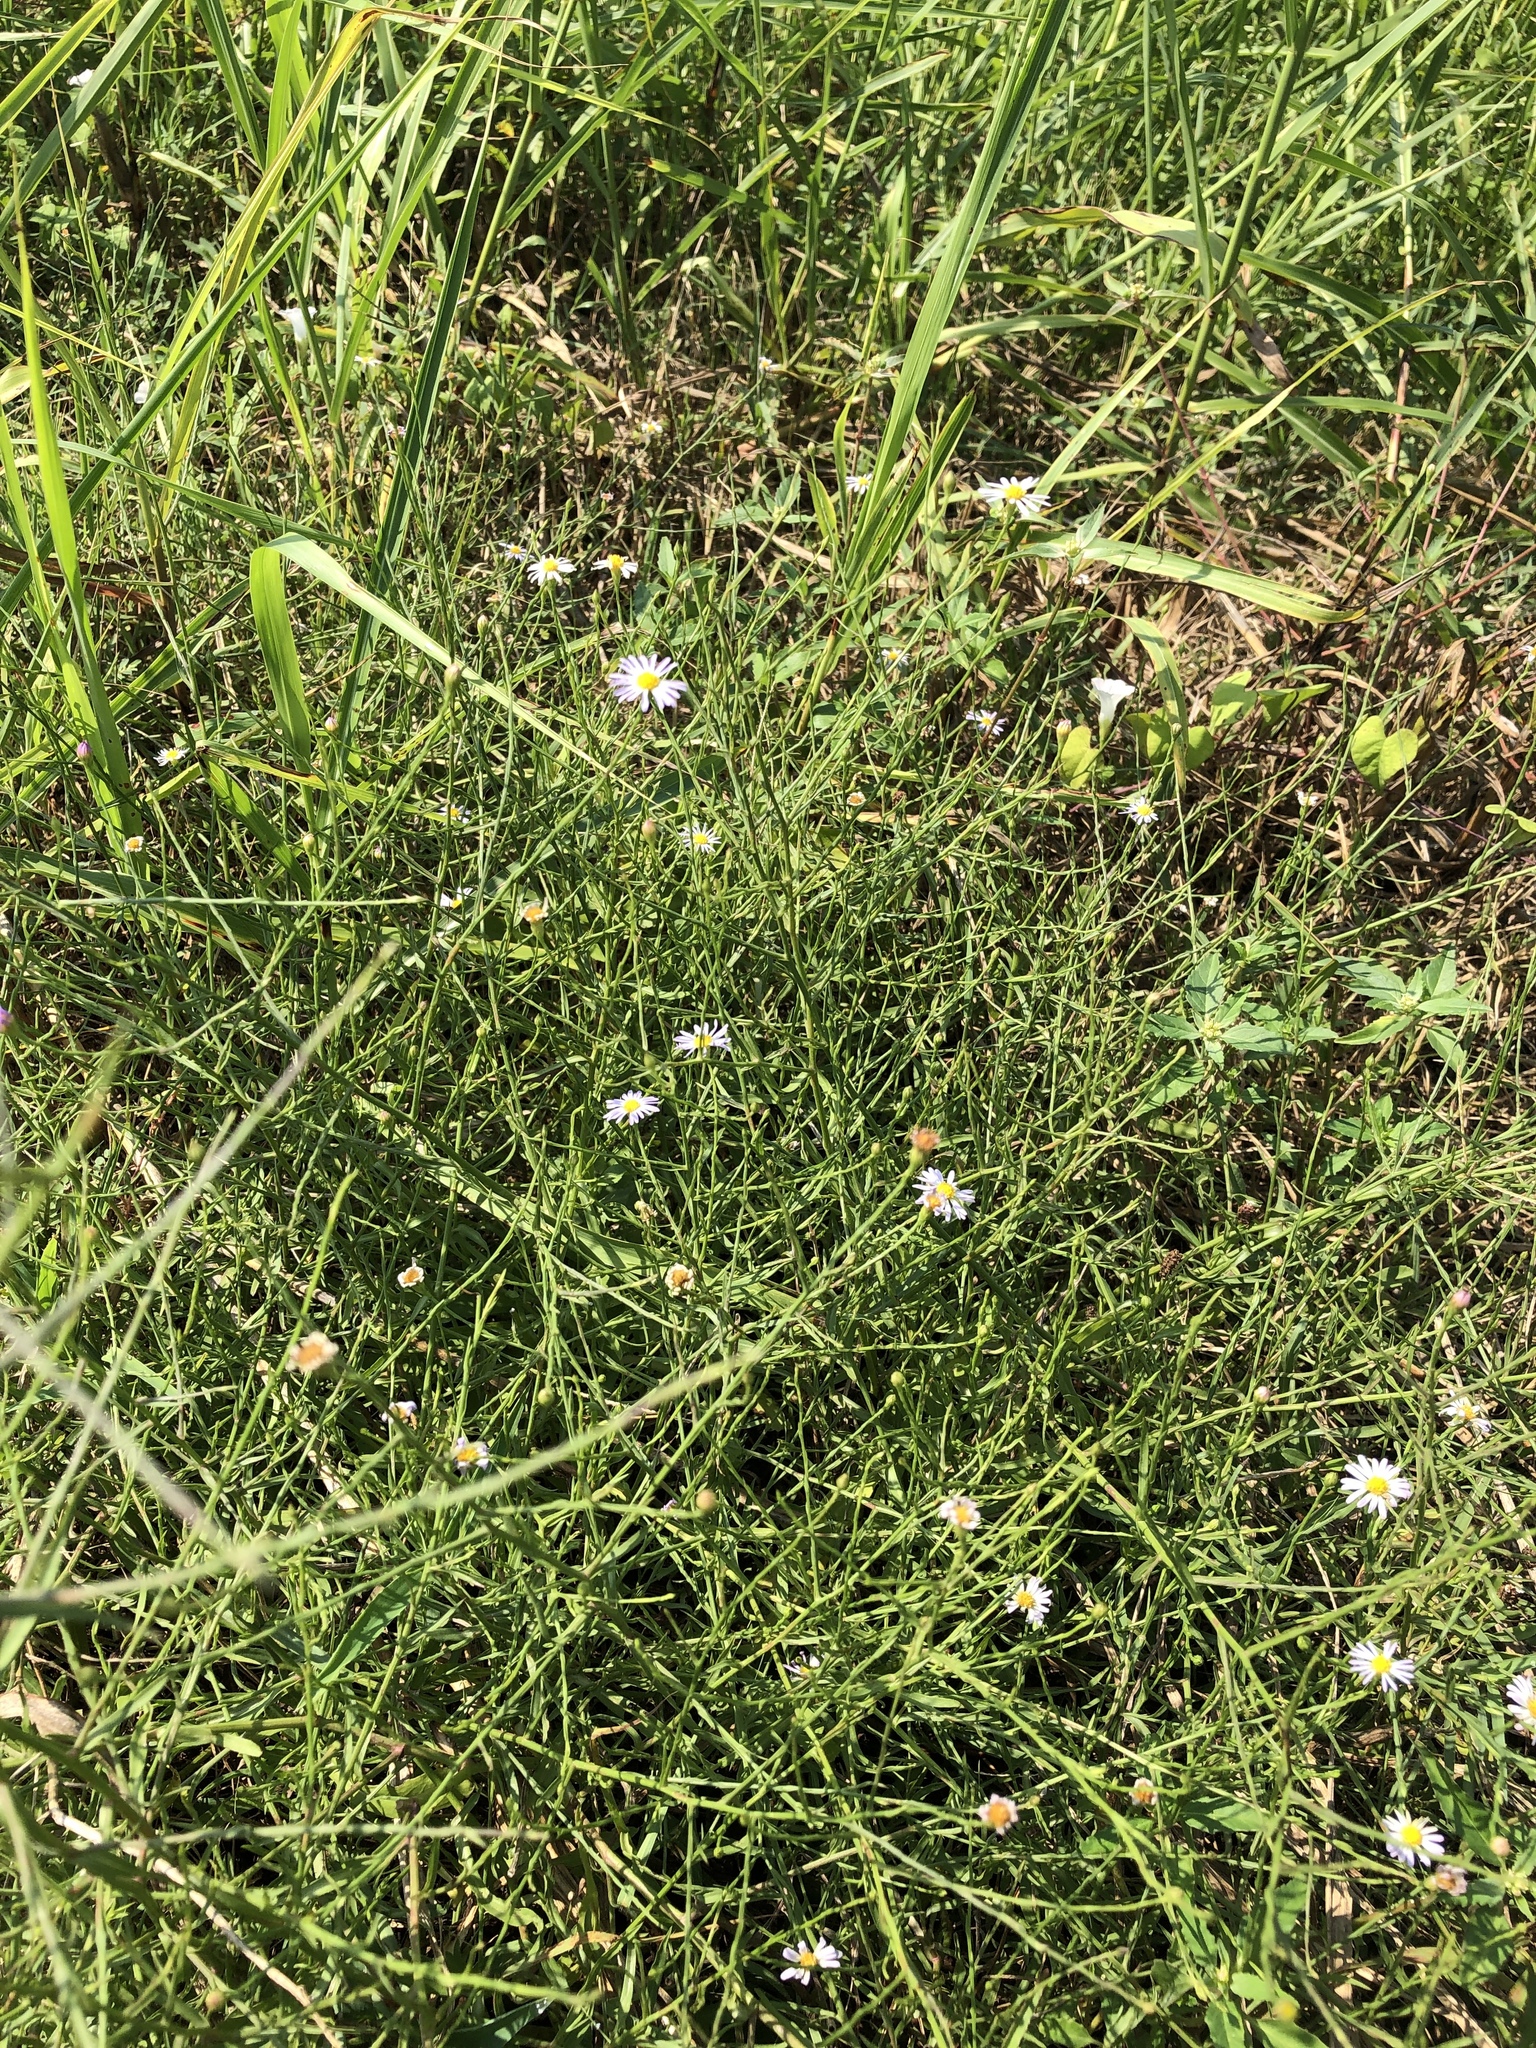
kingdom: Plantae
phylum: Tracheophyta
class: Magnoliopsida
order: Asterales
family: Asteraceae
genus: Symphyotrichum
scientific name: Symphyotrichum divaricatum
